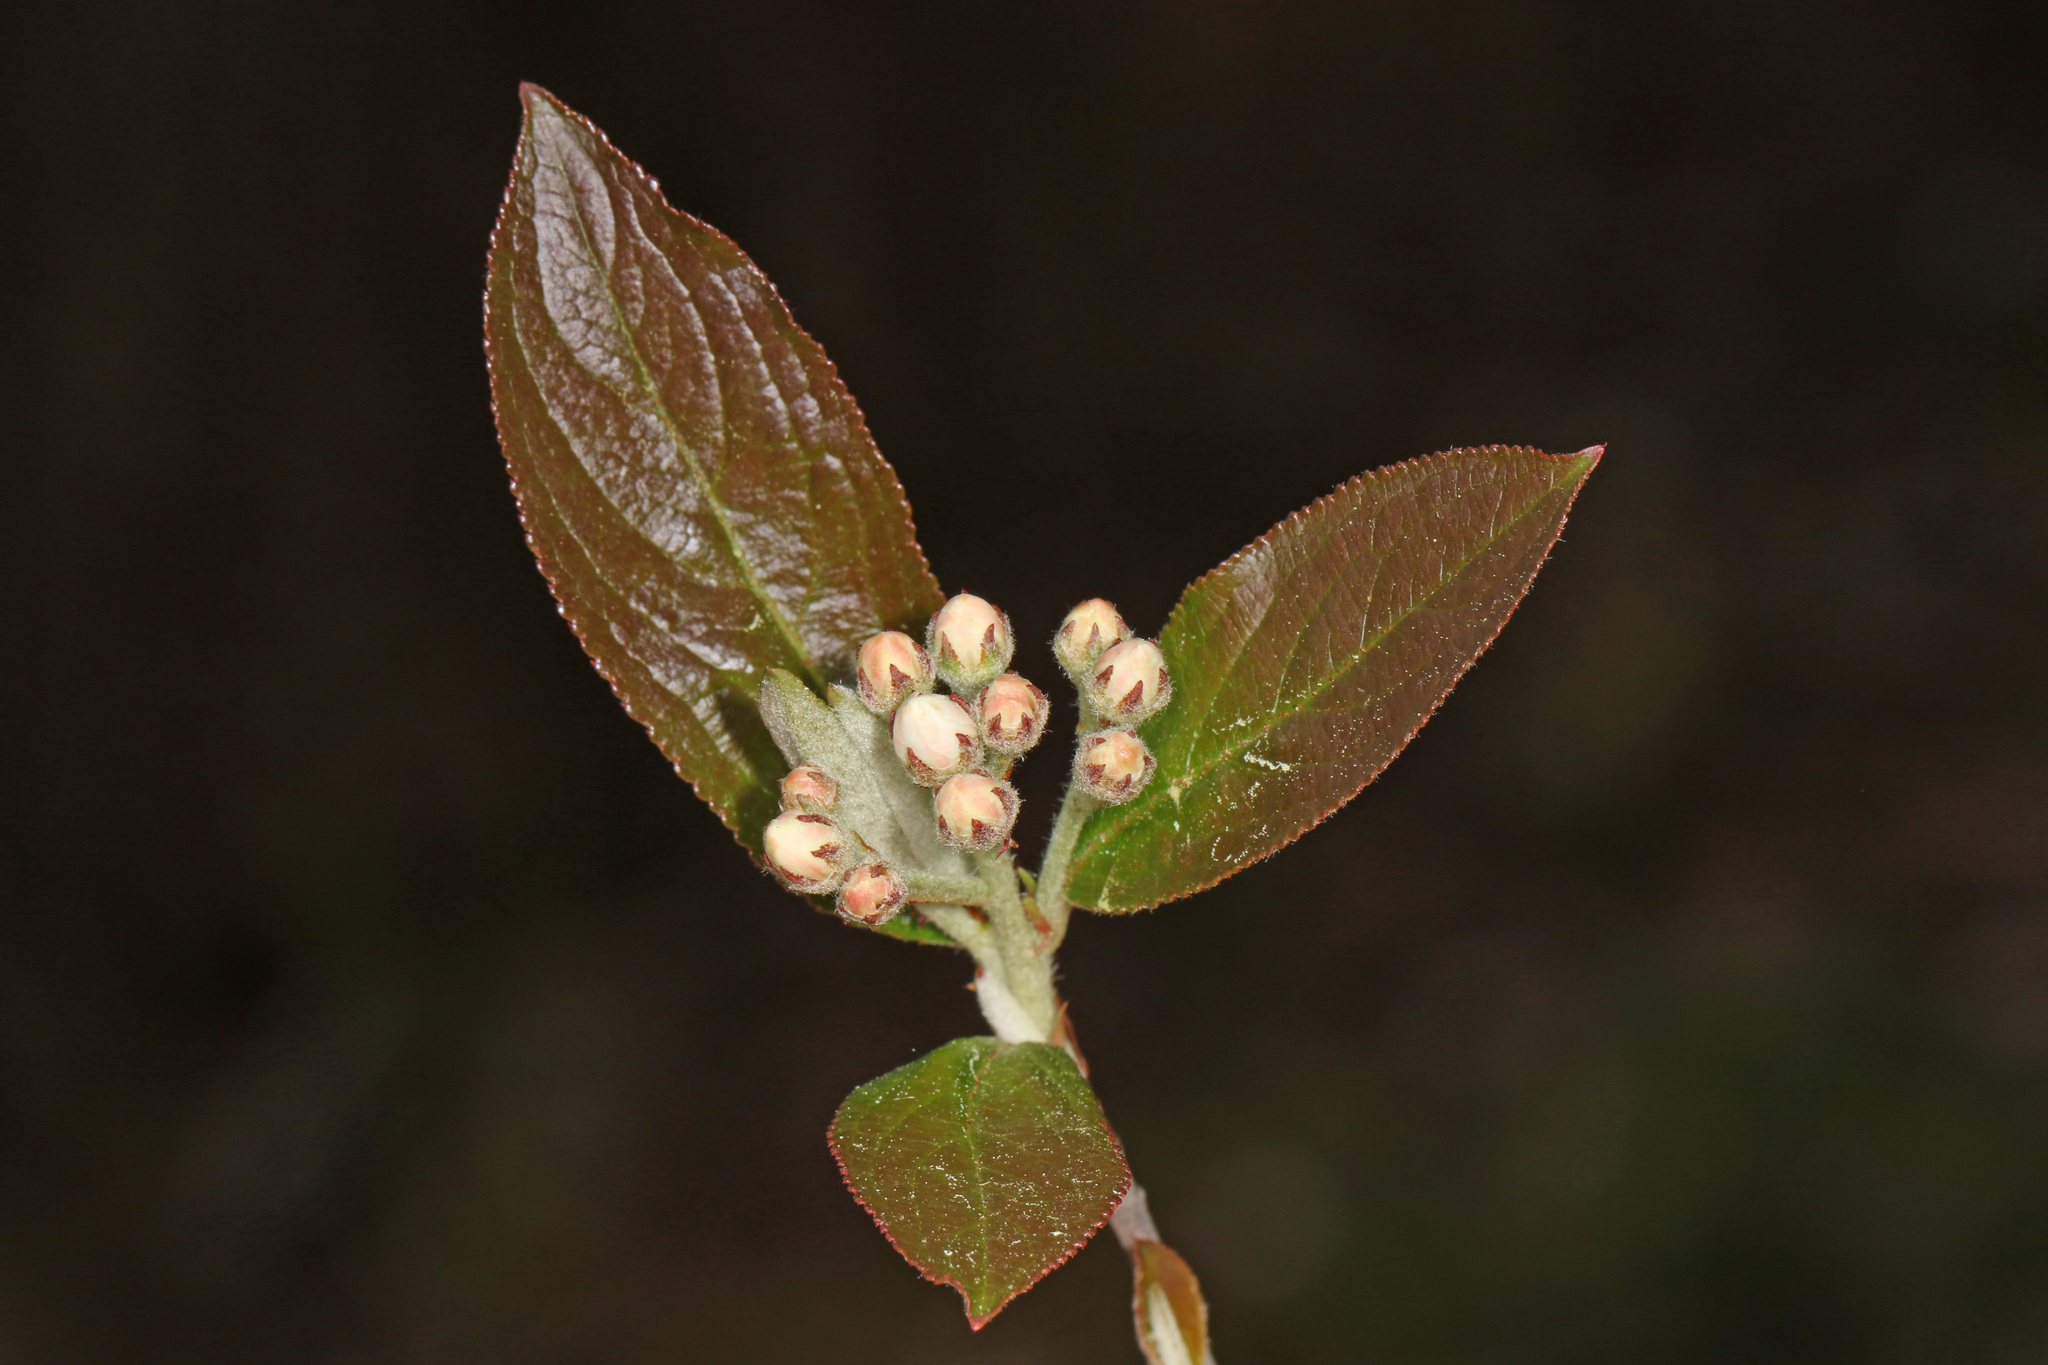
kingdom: Plantae
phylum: Tracheophyta
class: Magnoliopsida
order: Rosales
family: Rosaceae
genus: Aronia
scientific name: Aronia arbutifolia
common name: Red chokeberry
